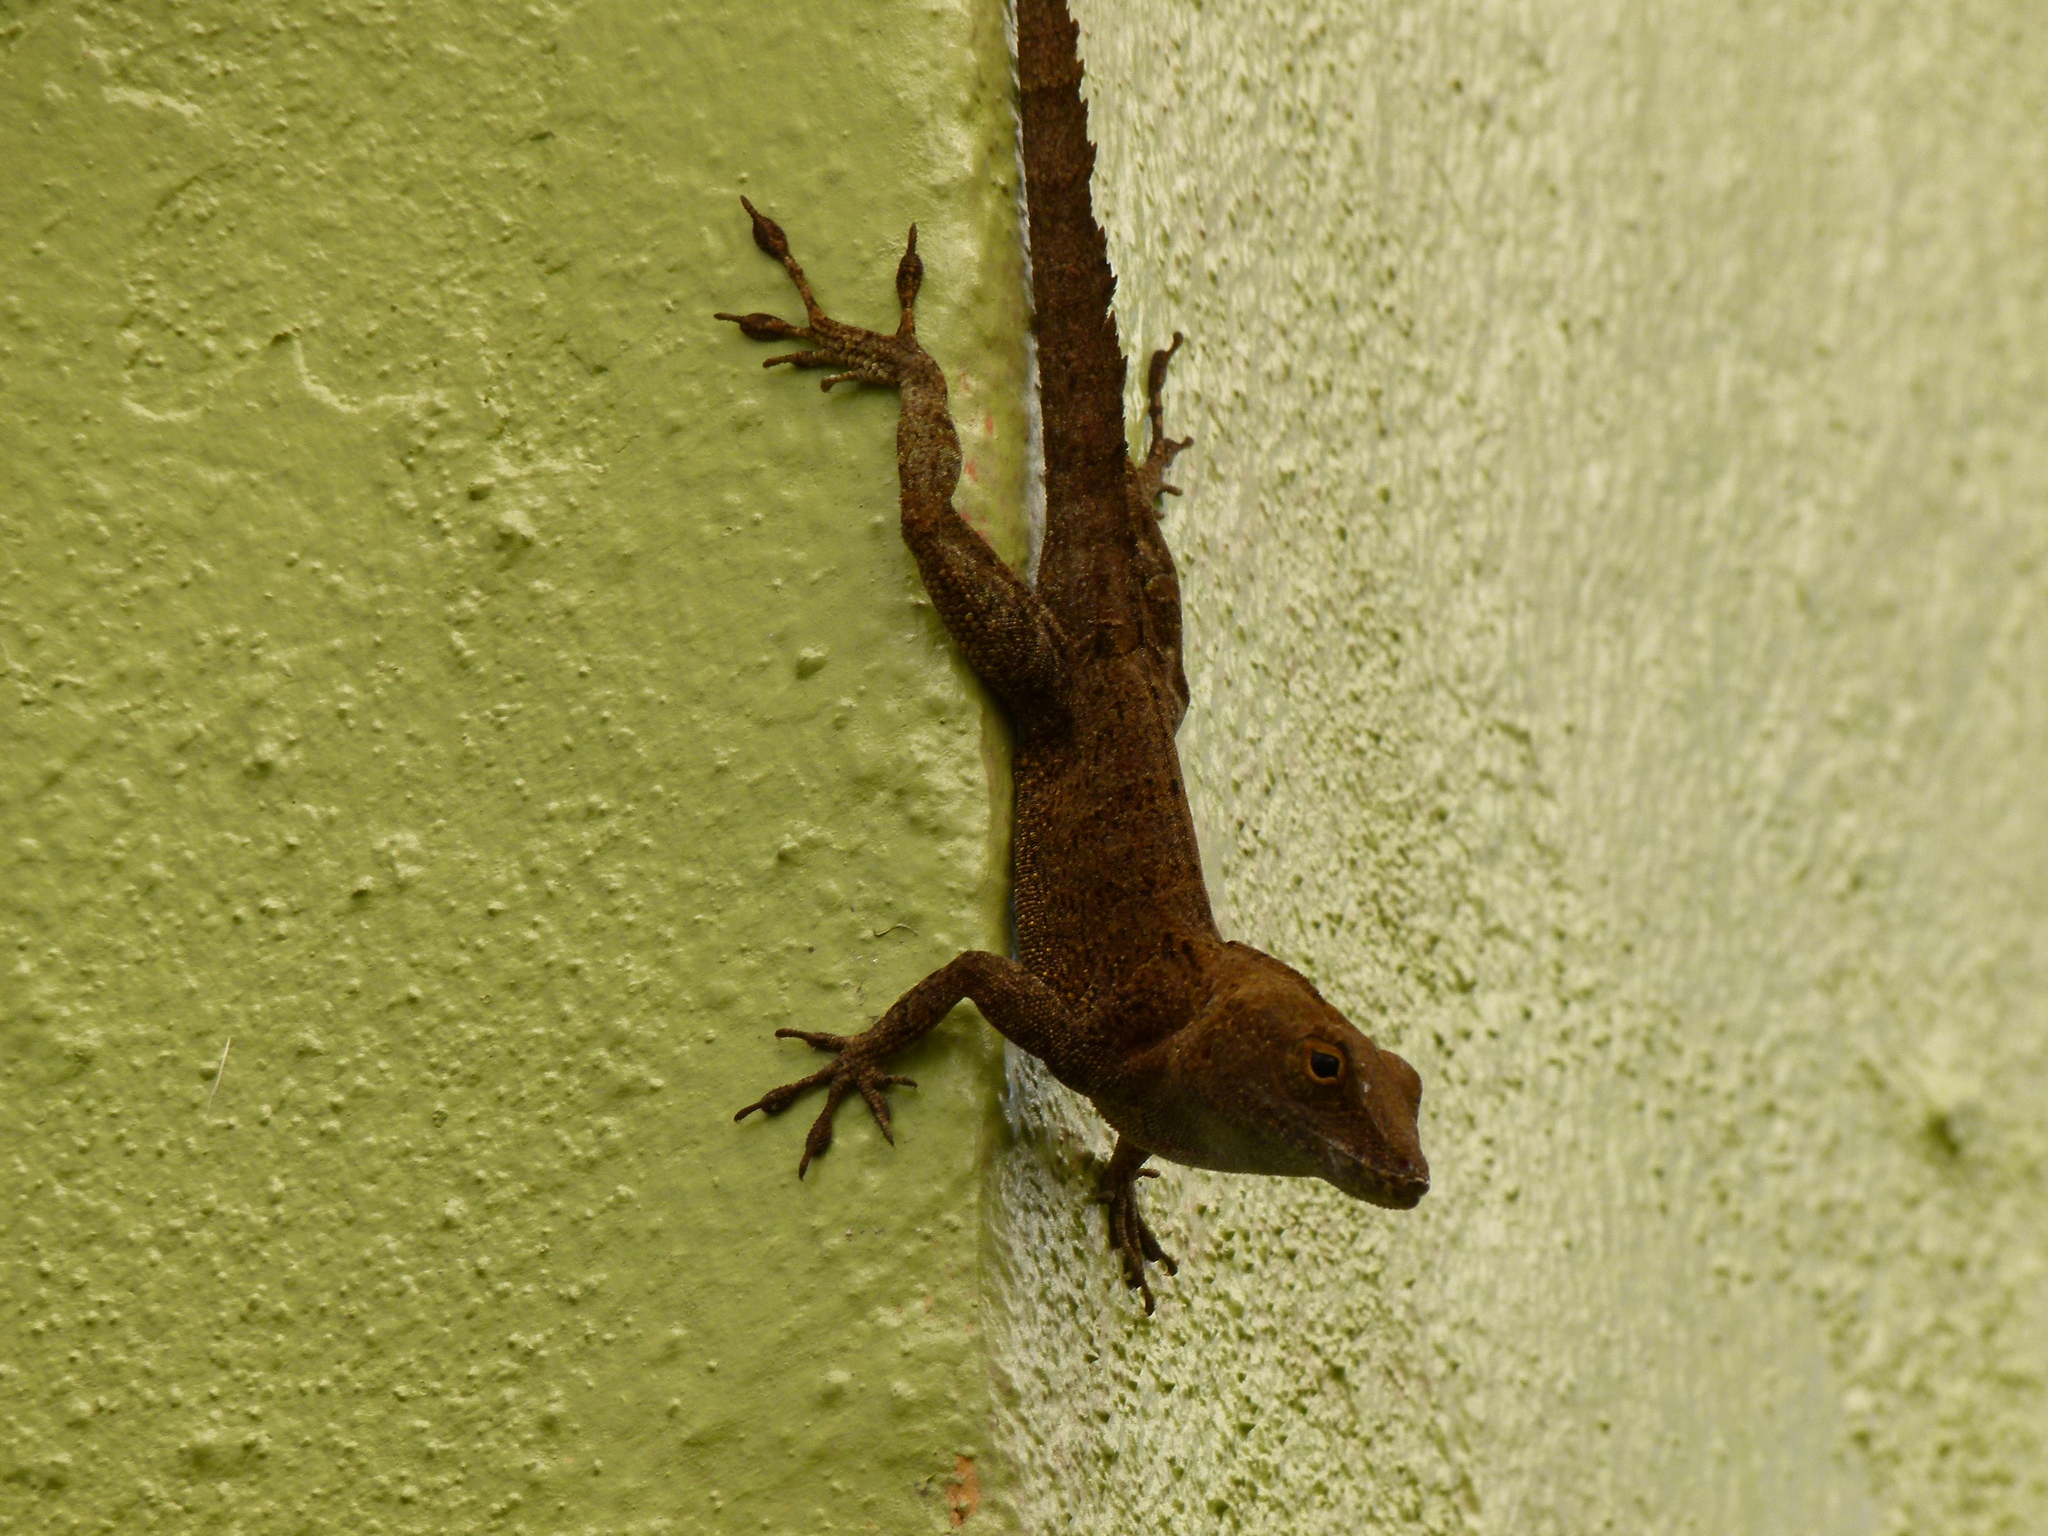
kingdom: Animalia
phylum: Chordata
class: Squamata
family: Dactyloidae
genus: Anolis
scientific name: Anolis cristatellus
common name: Crested anole
